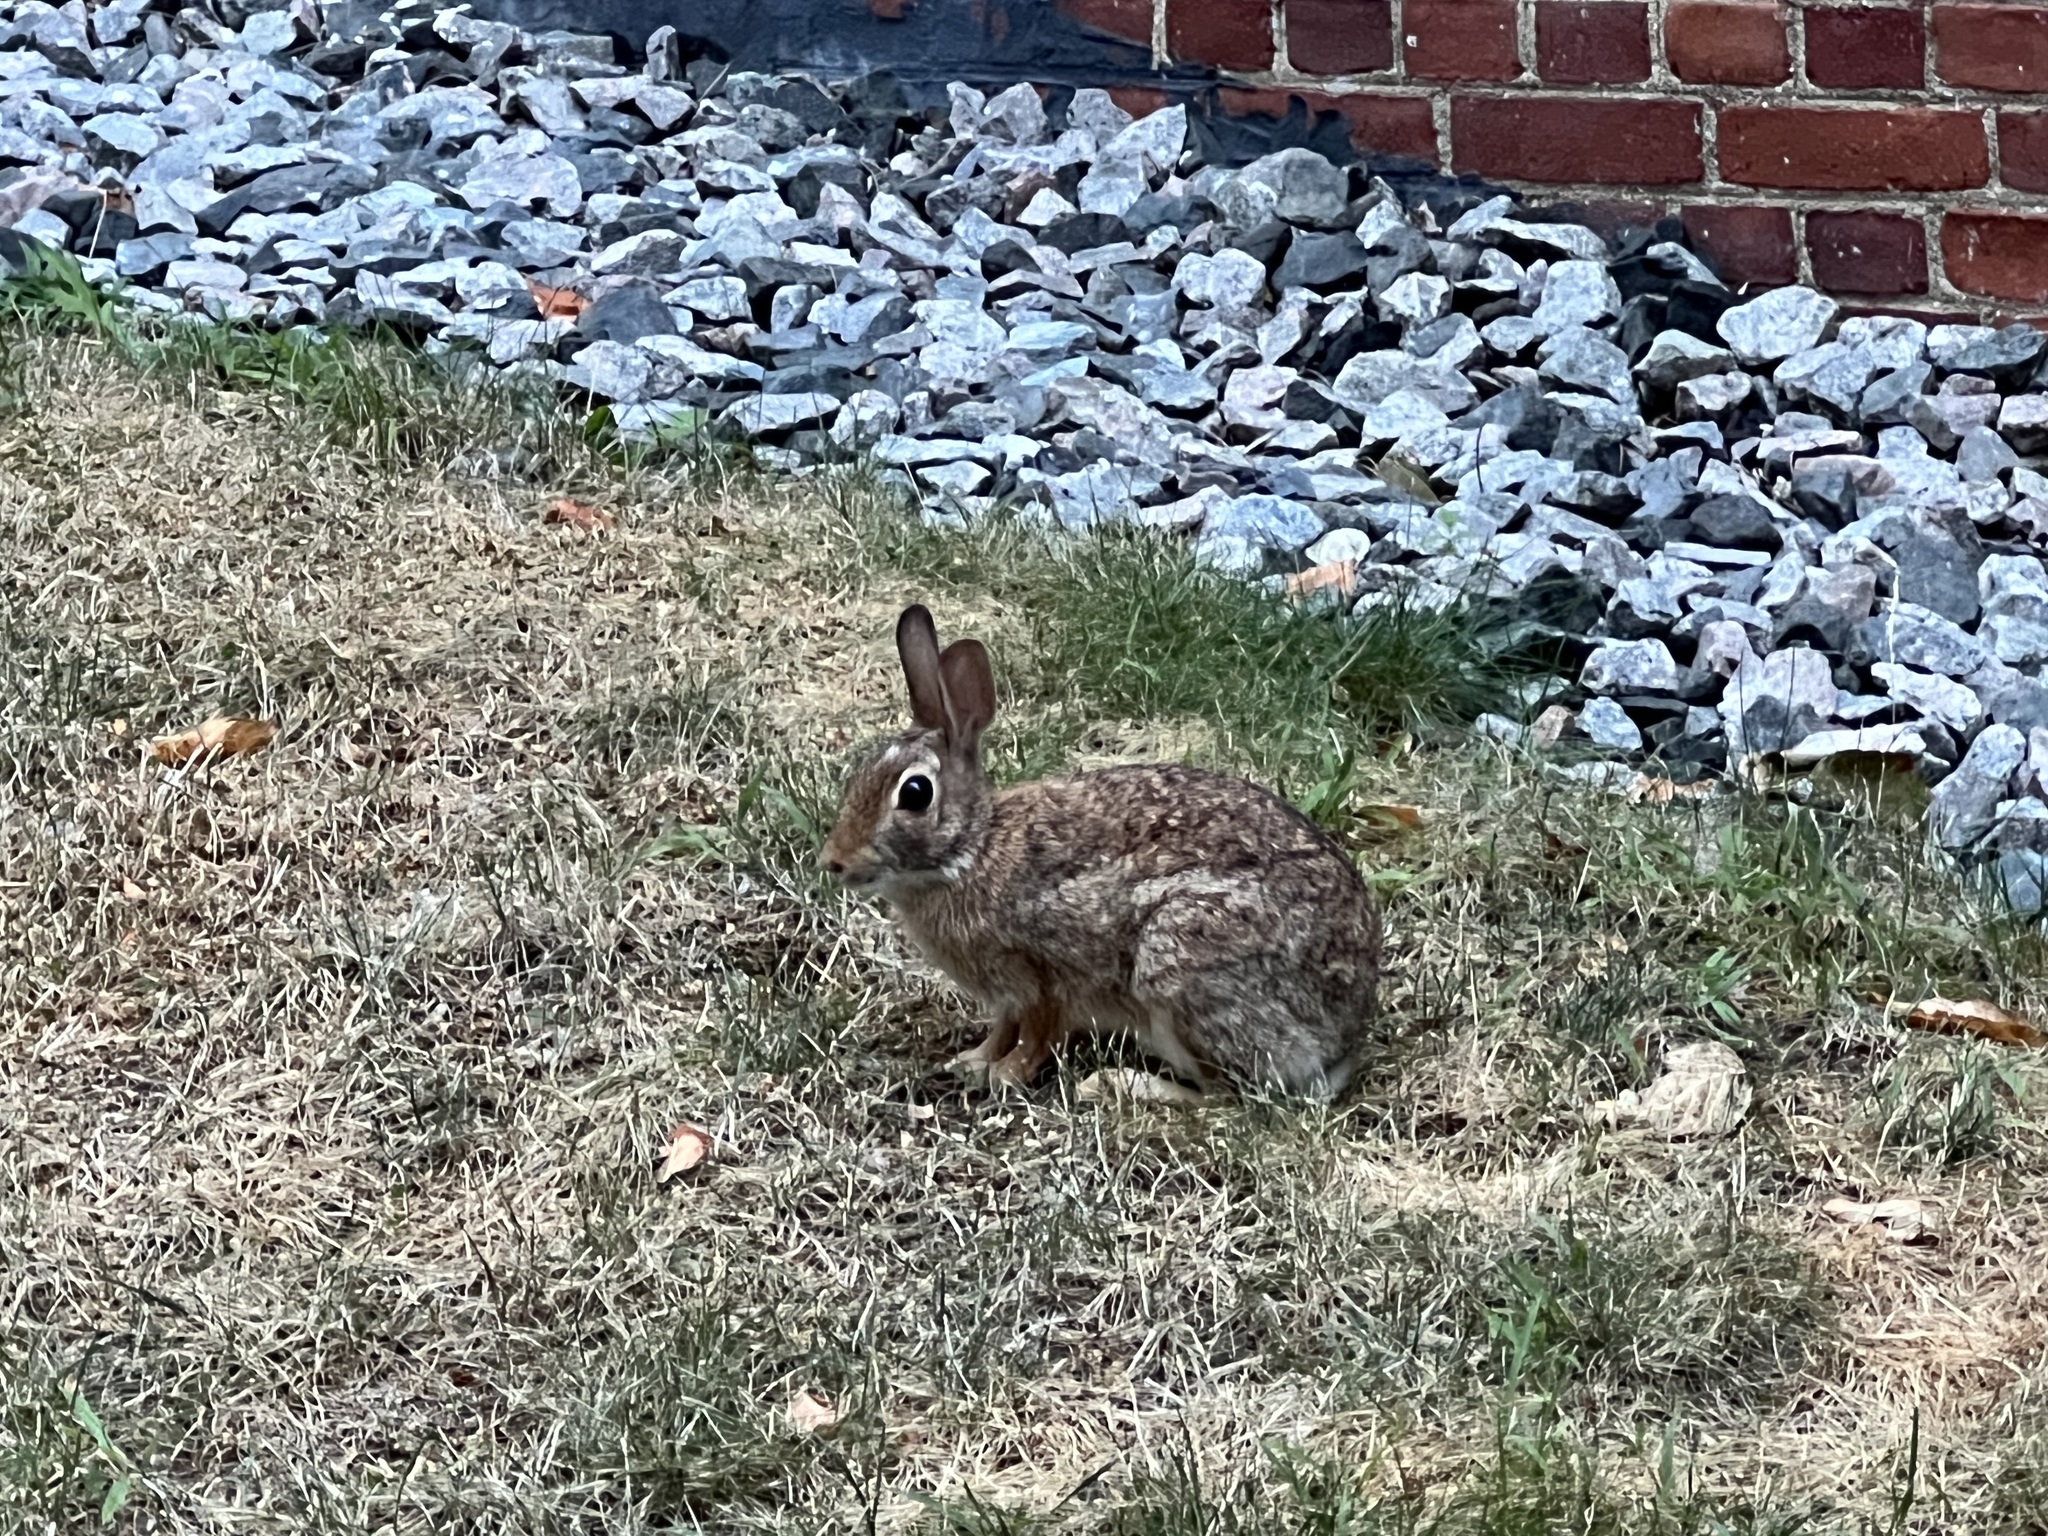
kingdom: Animalia
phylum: Chordata
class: Mammalia
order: Lagomorpha
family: Leporidae
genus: Sylvilagus
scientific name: Sylvilagus floridanus
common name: Eastern cottontail
